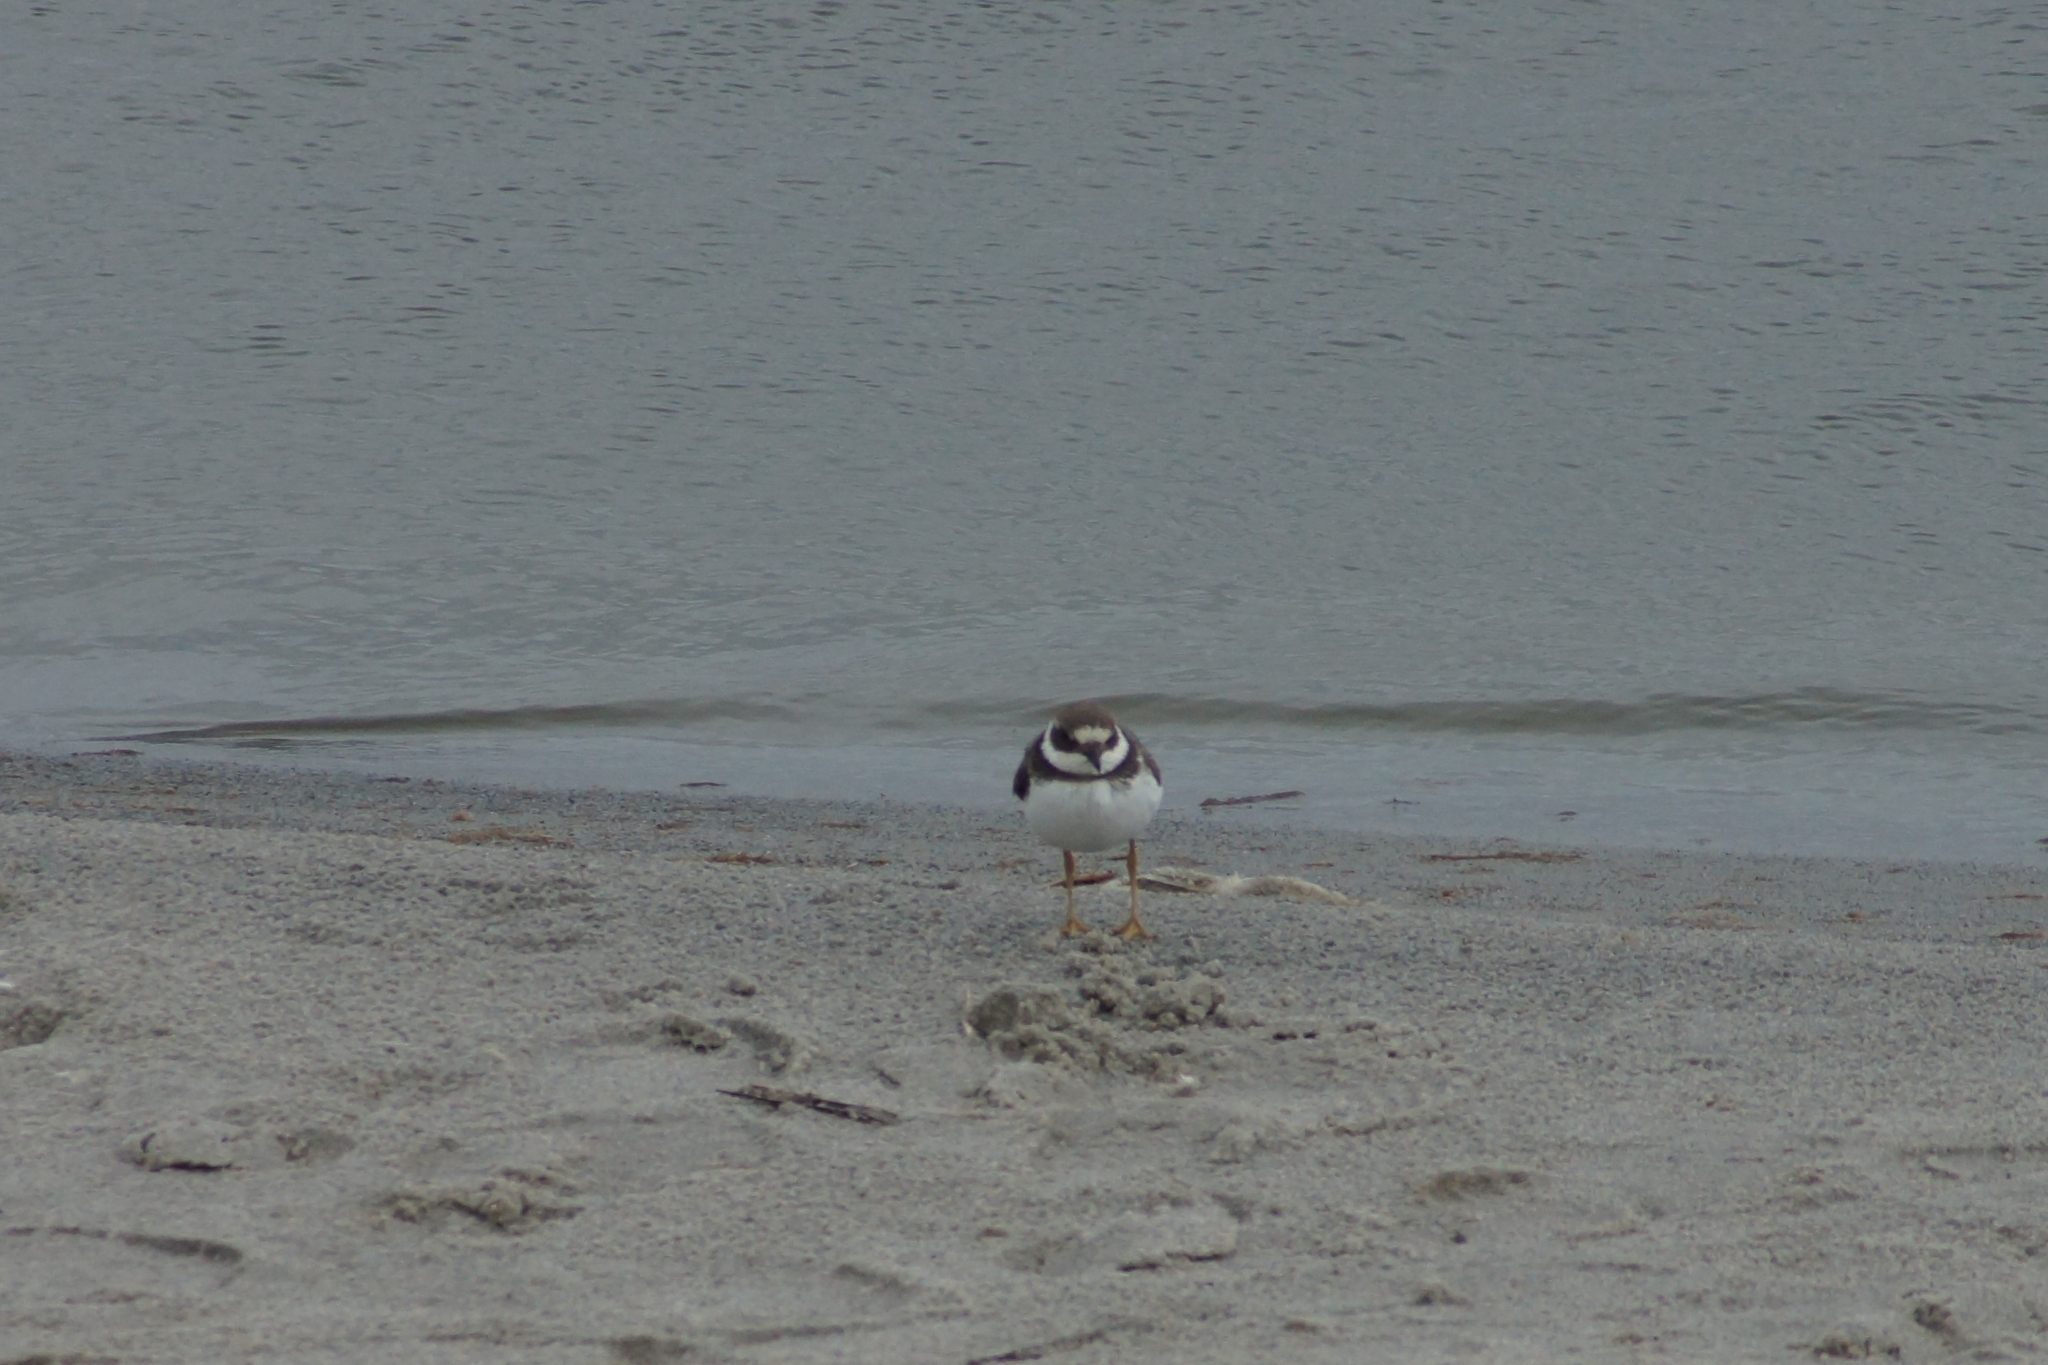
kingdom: Animalia
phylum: Chordata
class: Aves
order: Charadriiformes
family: Charadriidae
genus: Charadrius
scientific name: Charadrius hiaticula
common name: Common ringed plover
